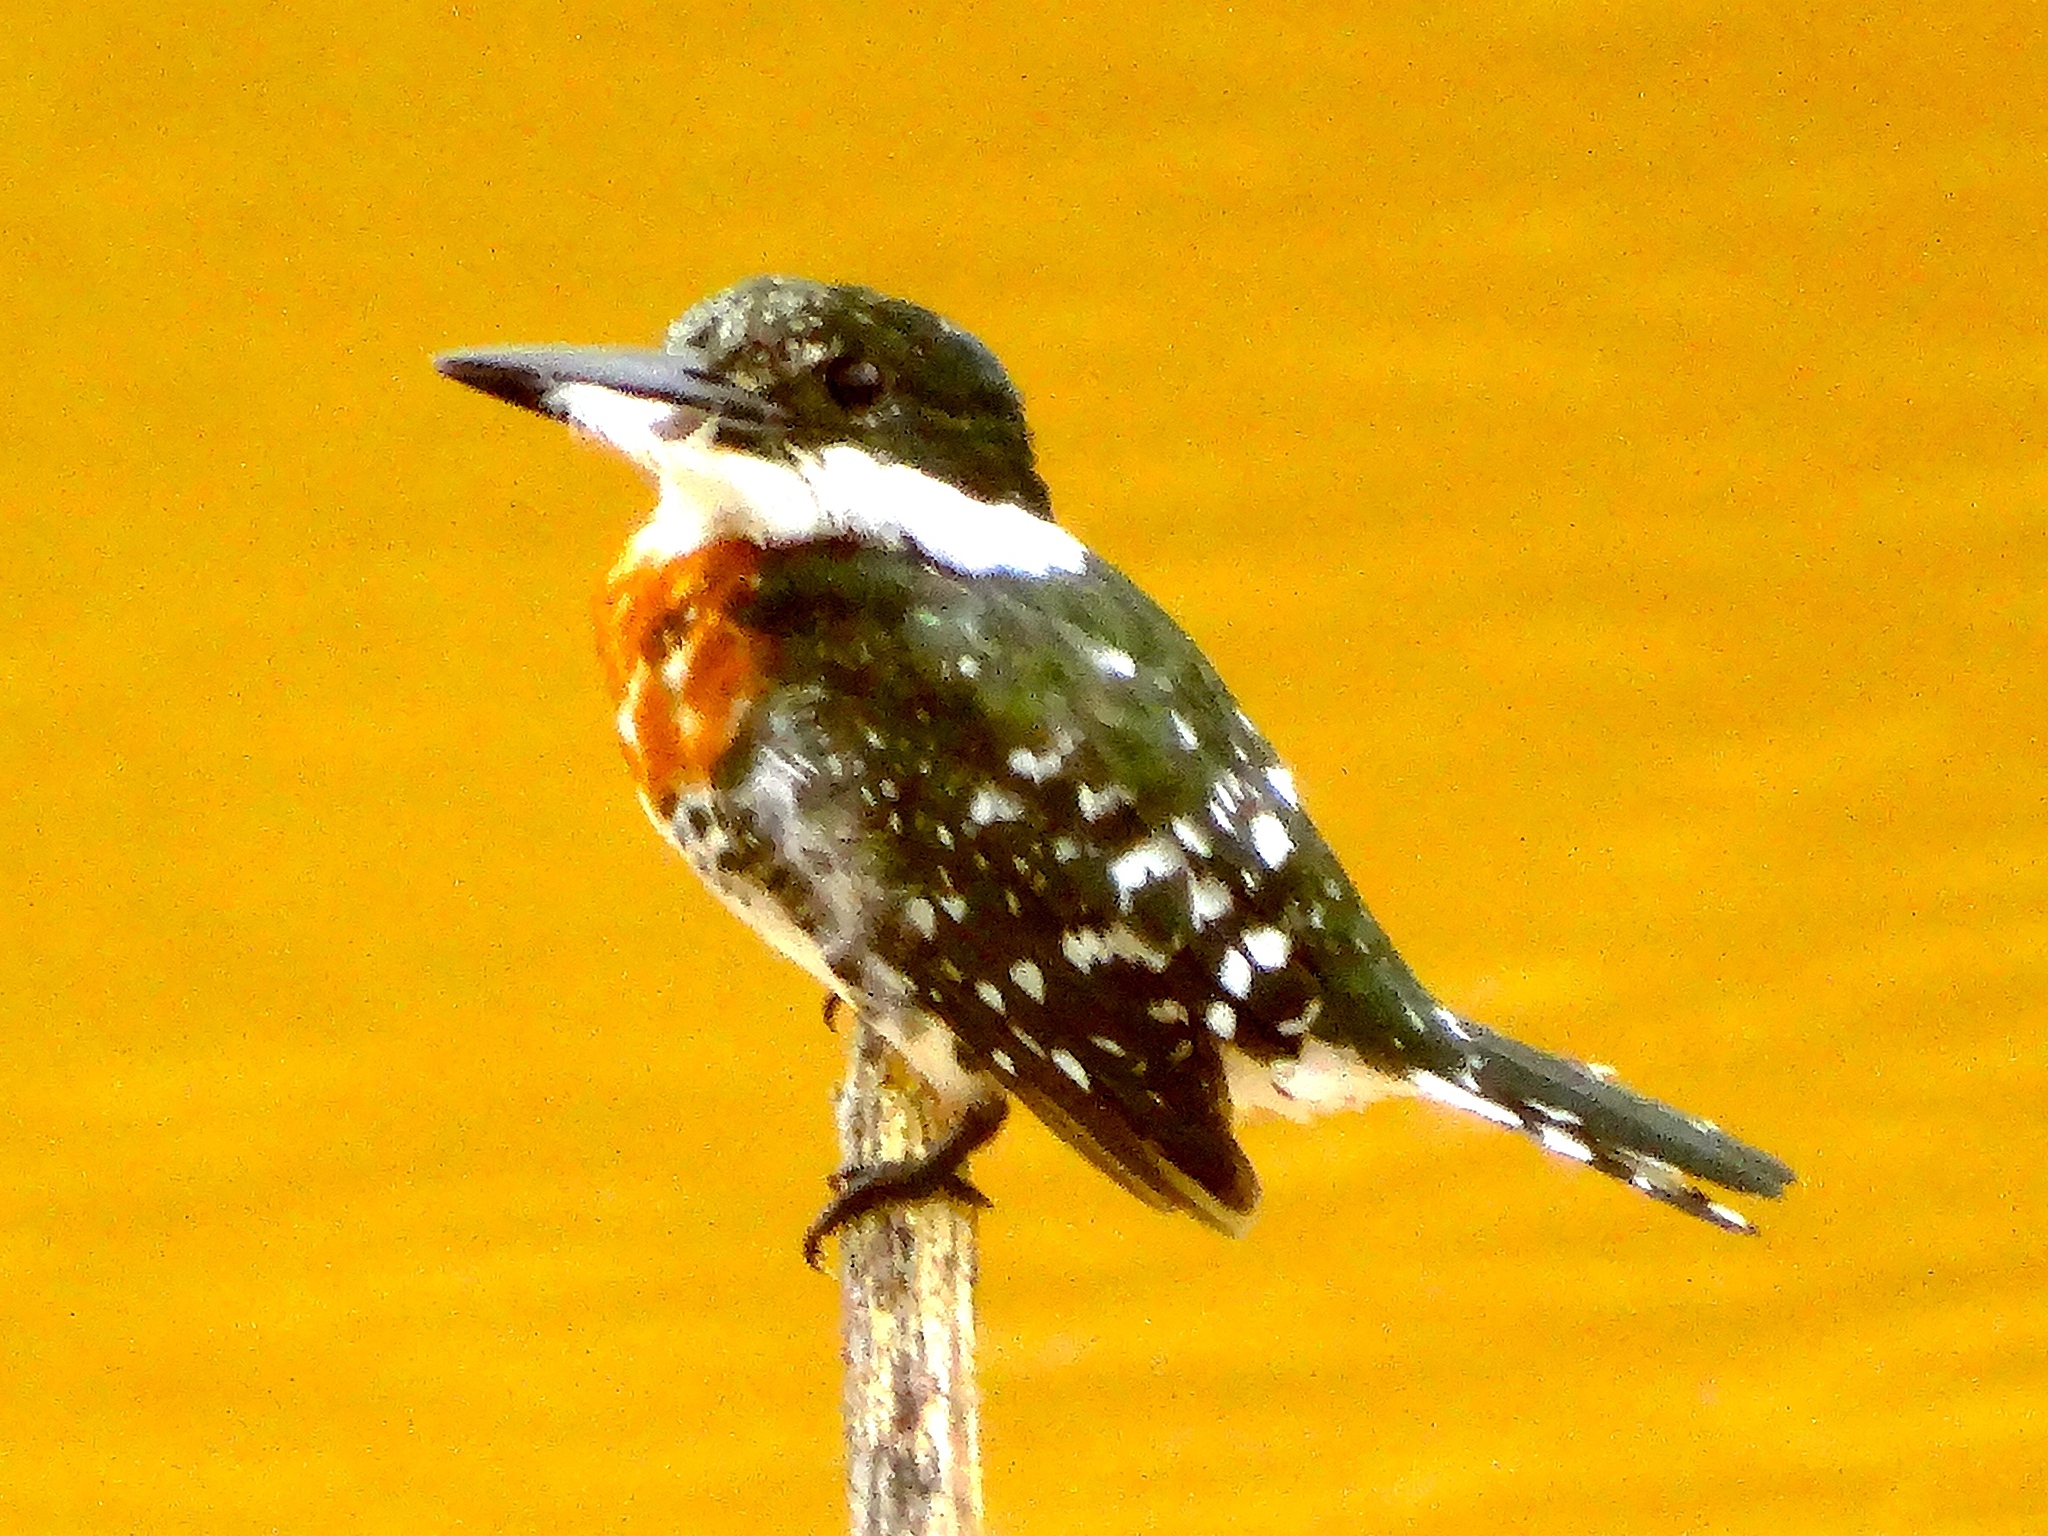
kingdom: Animalia
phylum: Chordata
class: Aves
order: Coraciiformes
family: Alcedinidae
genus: Chloroceryle
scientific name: Chloroceryle americana
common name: Green kingfisher
